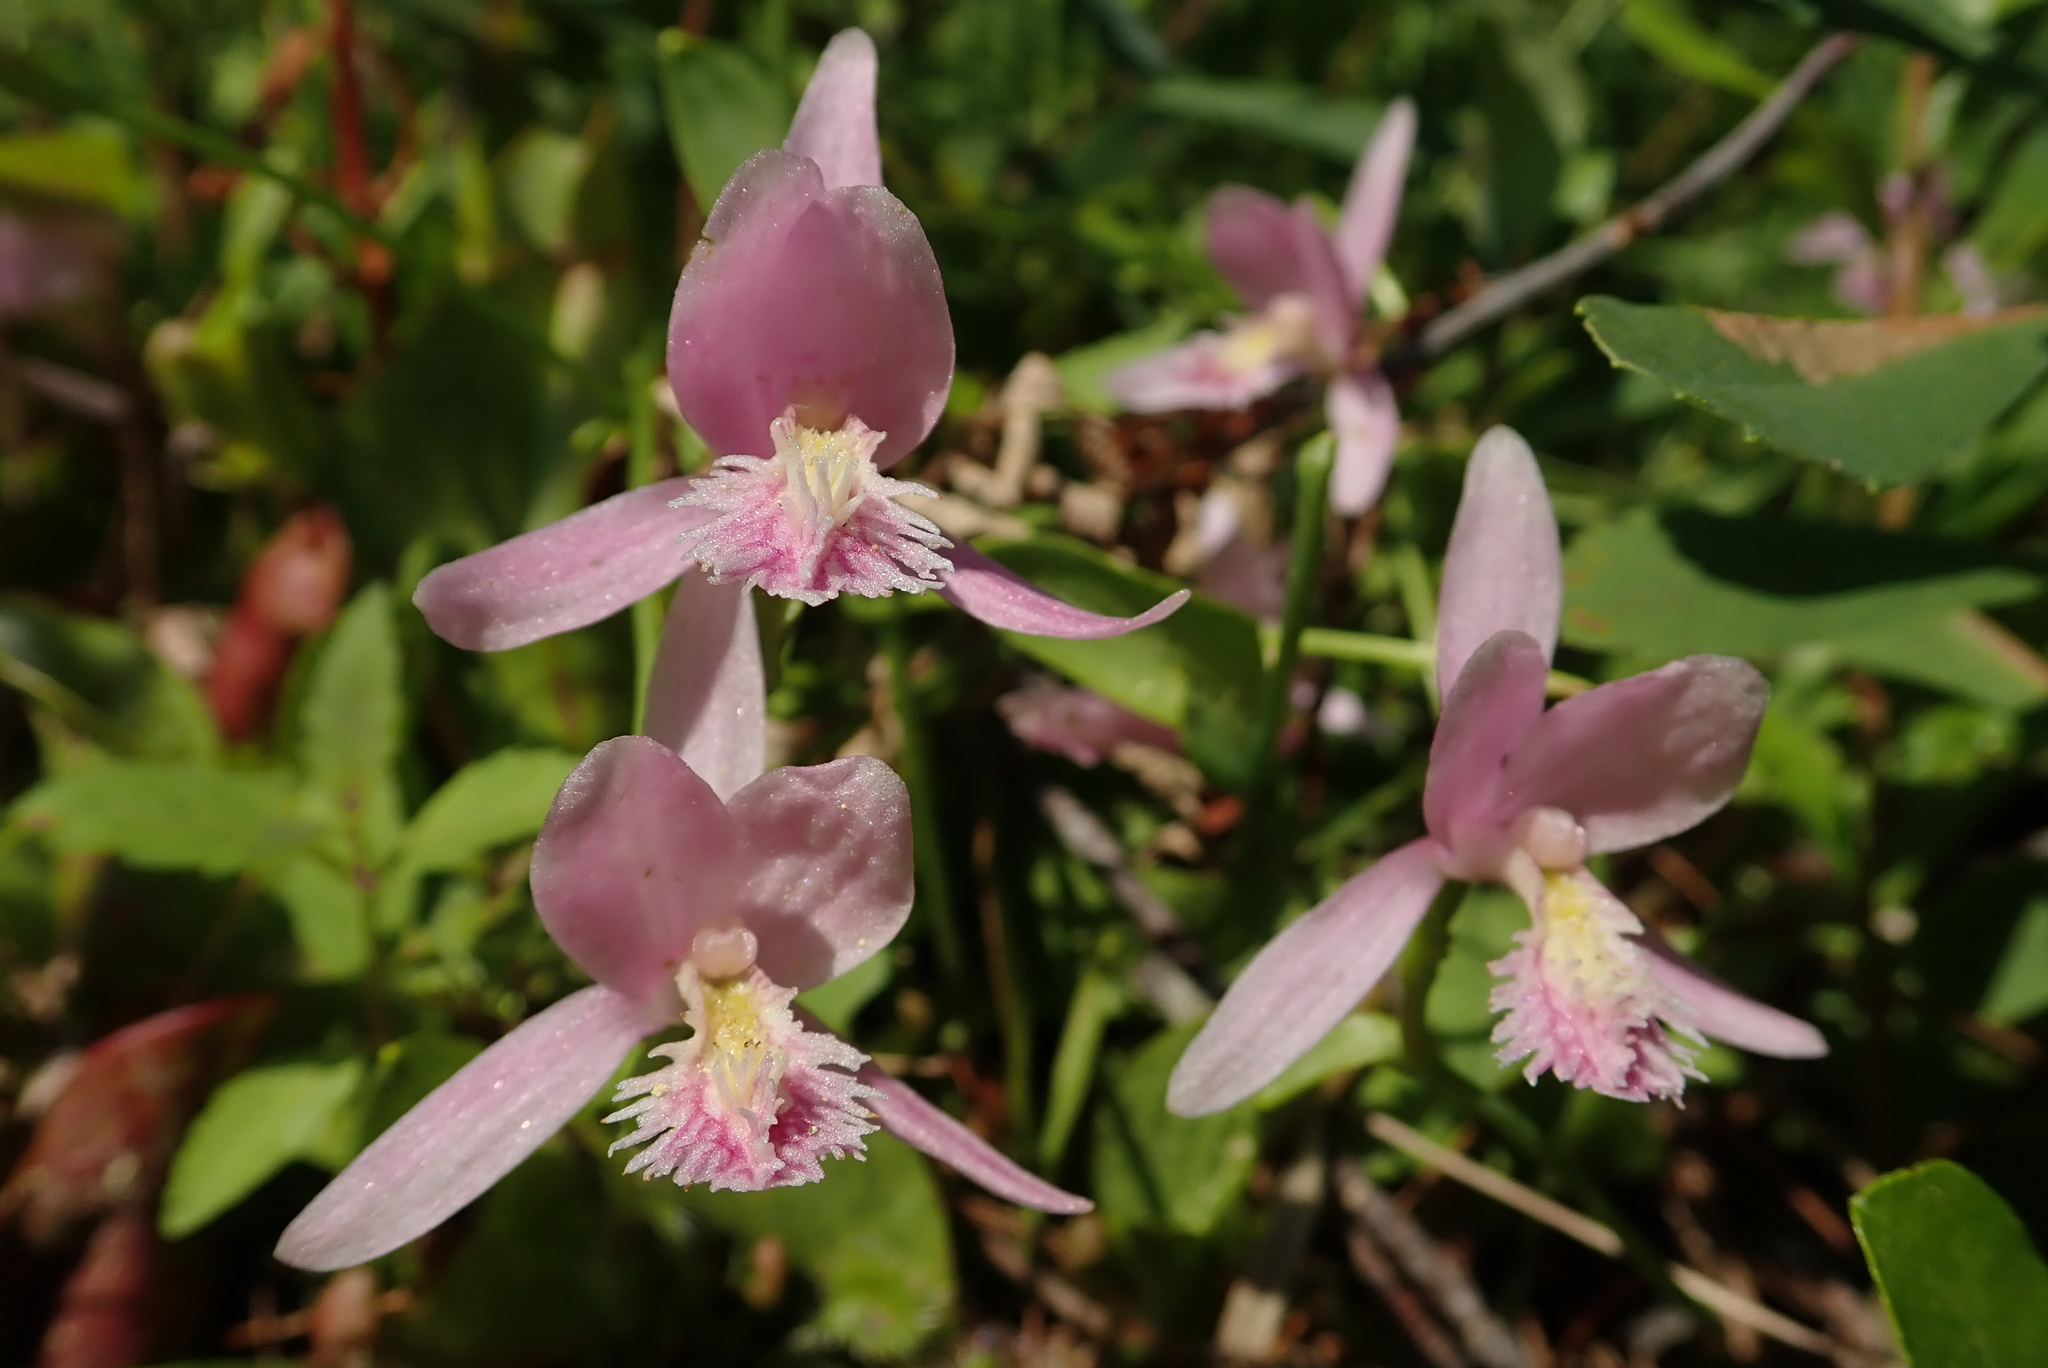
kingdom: Plantae
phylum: Tracheophyta
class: Liliopsida
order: Asparagales
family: Orchidaceae
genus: Pogonia
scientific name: Pogonia ophioglossoides
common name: Rose pogonia
